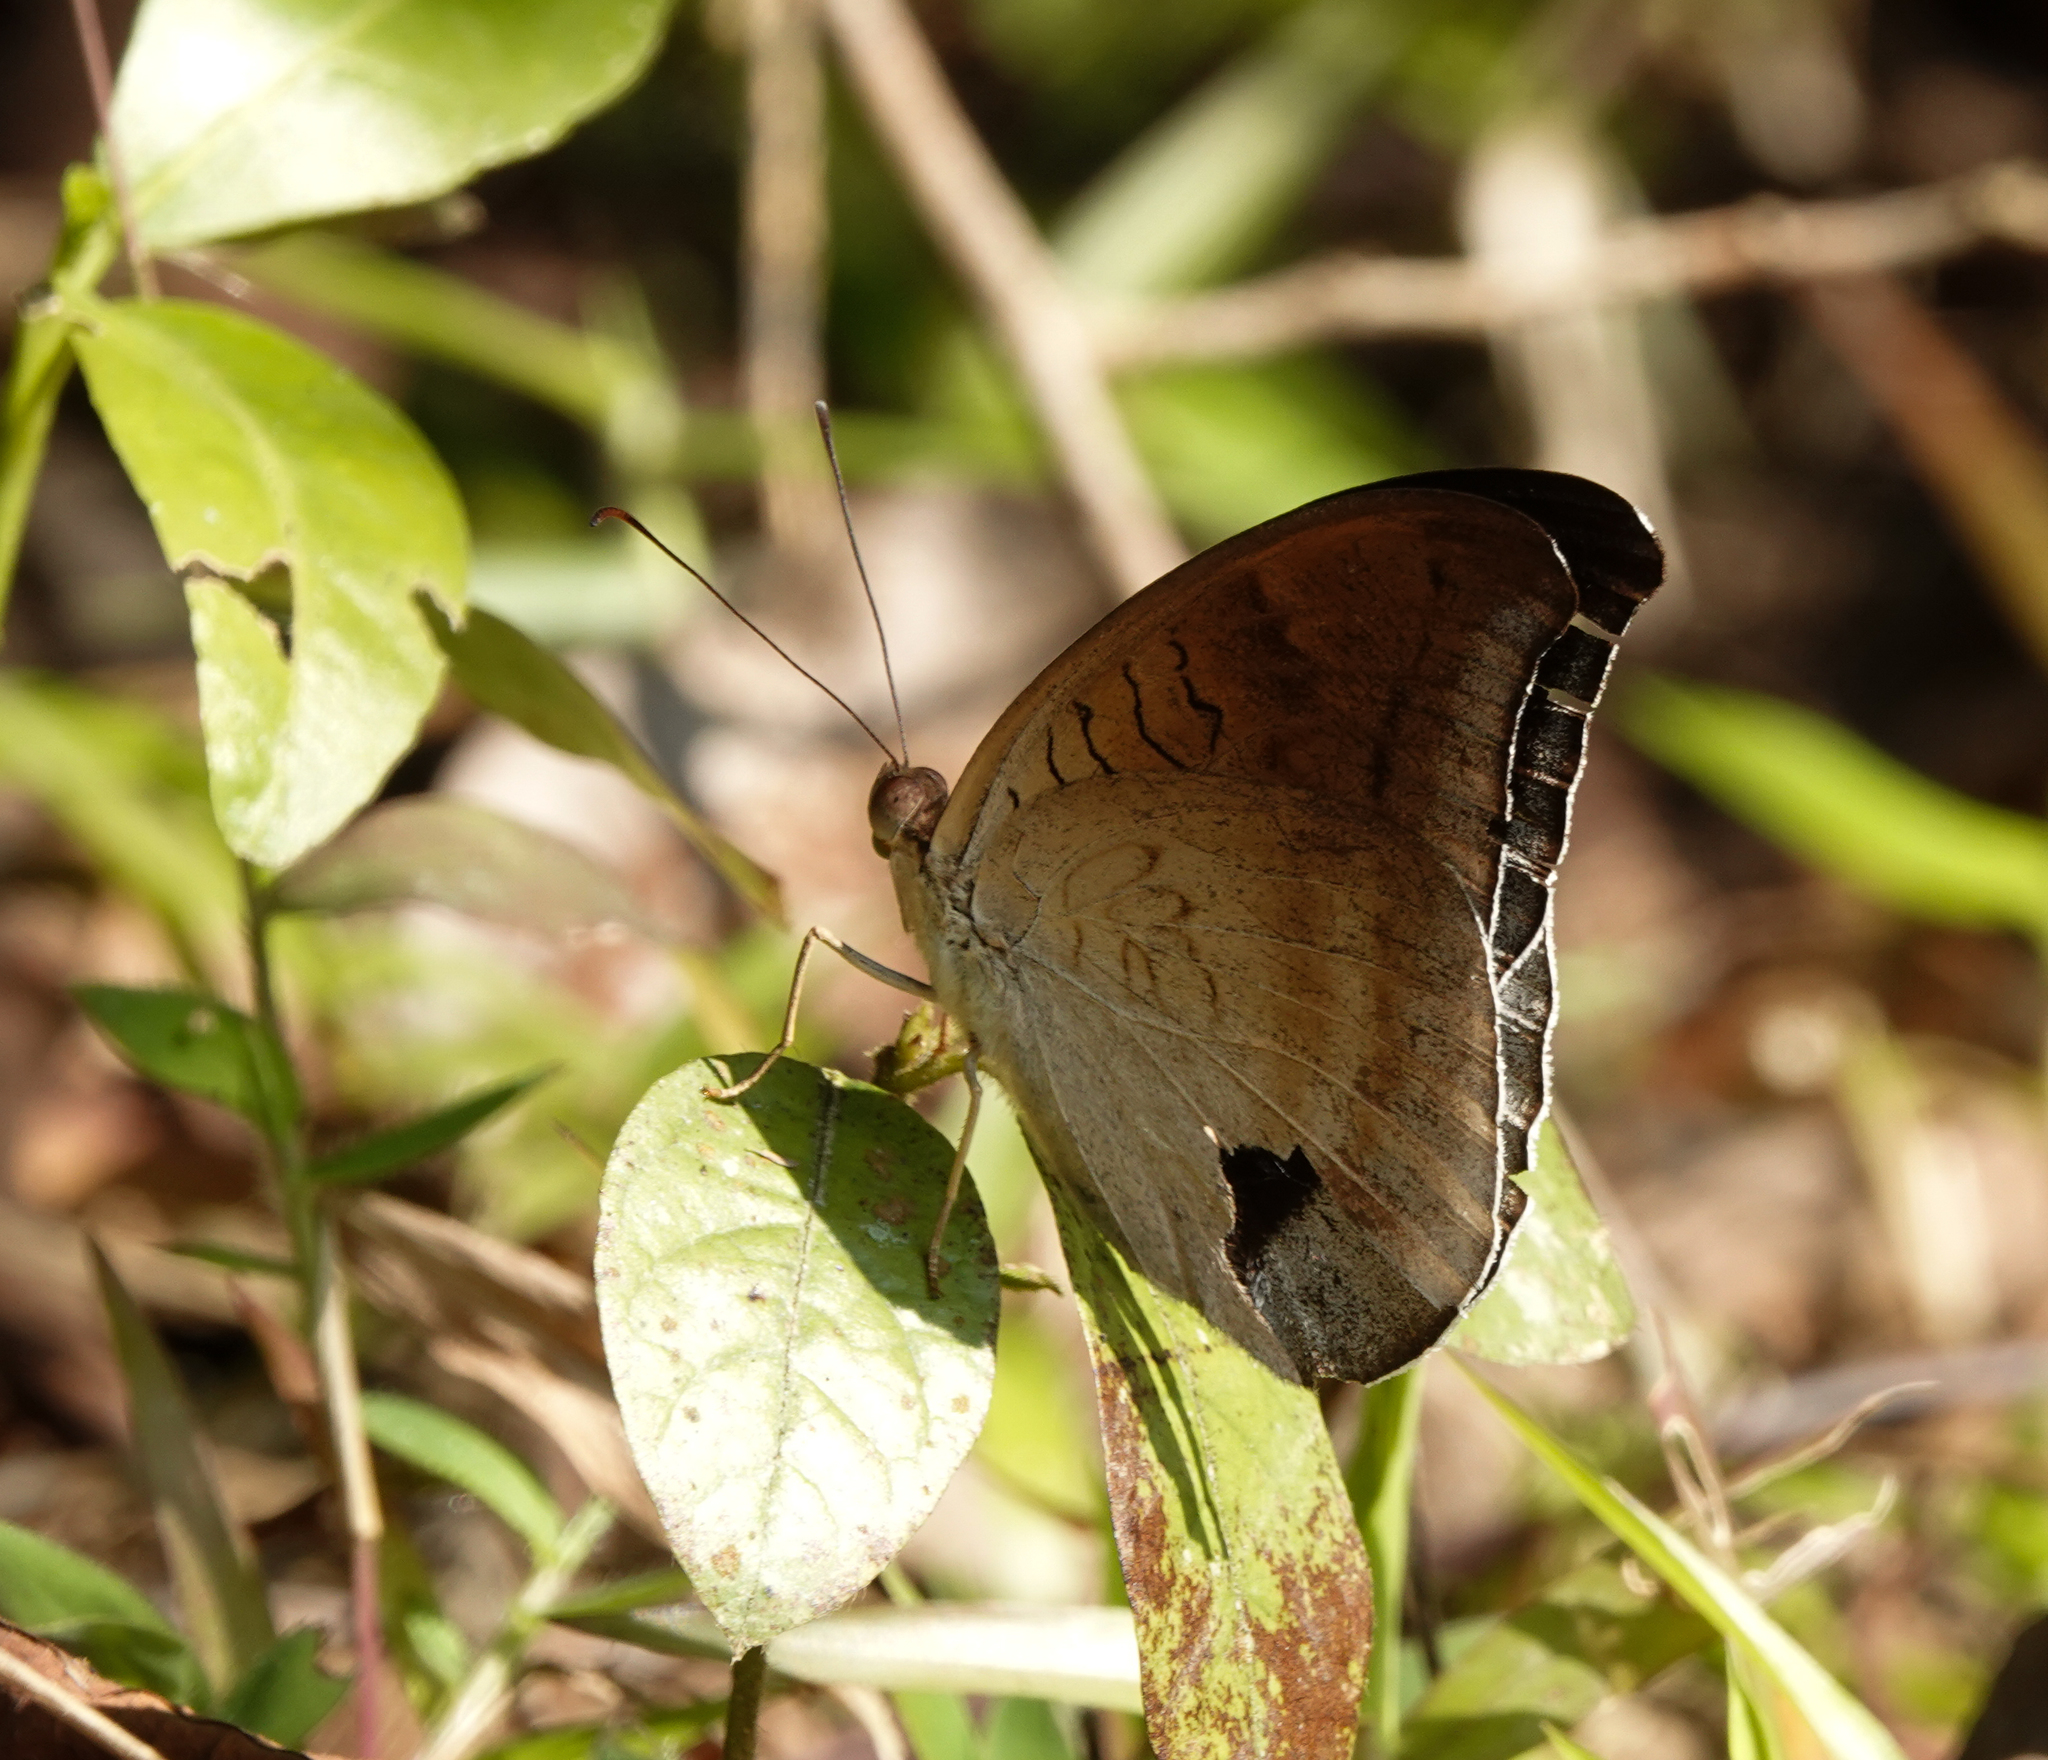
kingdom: Animalia
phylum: Arthropoda
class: Insecta
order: Lepidoptera
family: Nymphalidae
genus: Tanaecia
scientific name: Tanaecia lepidea
